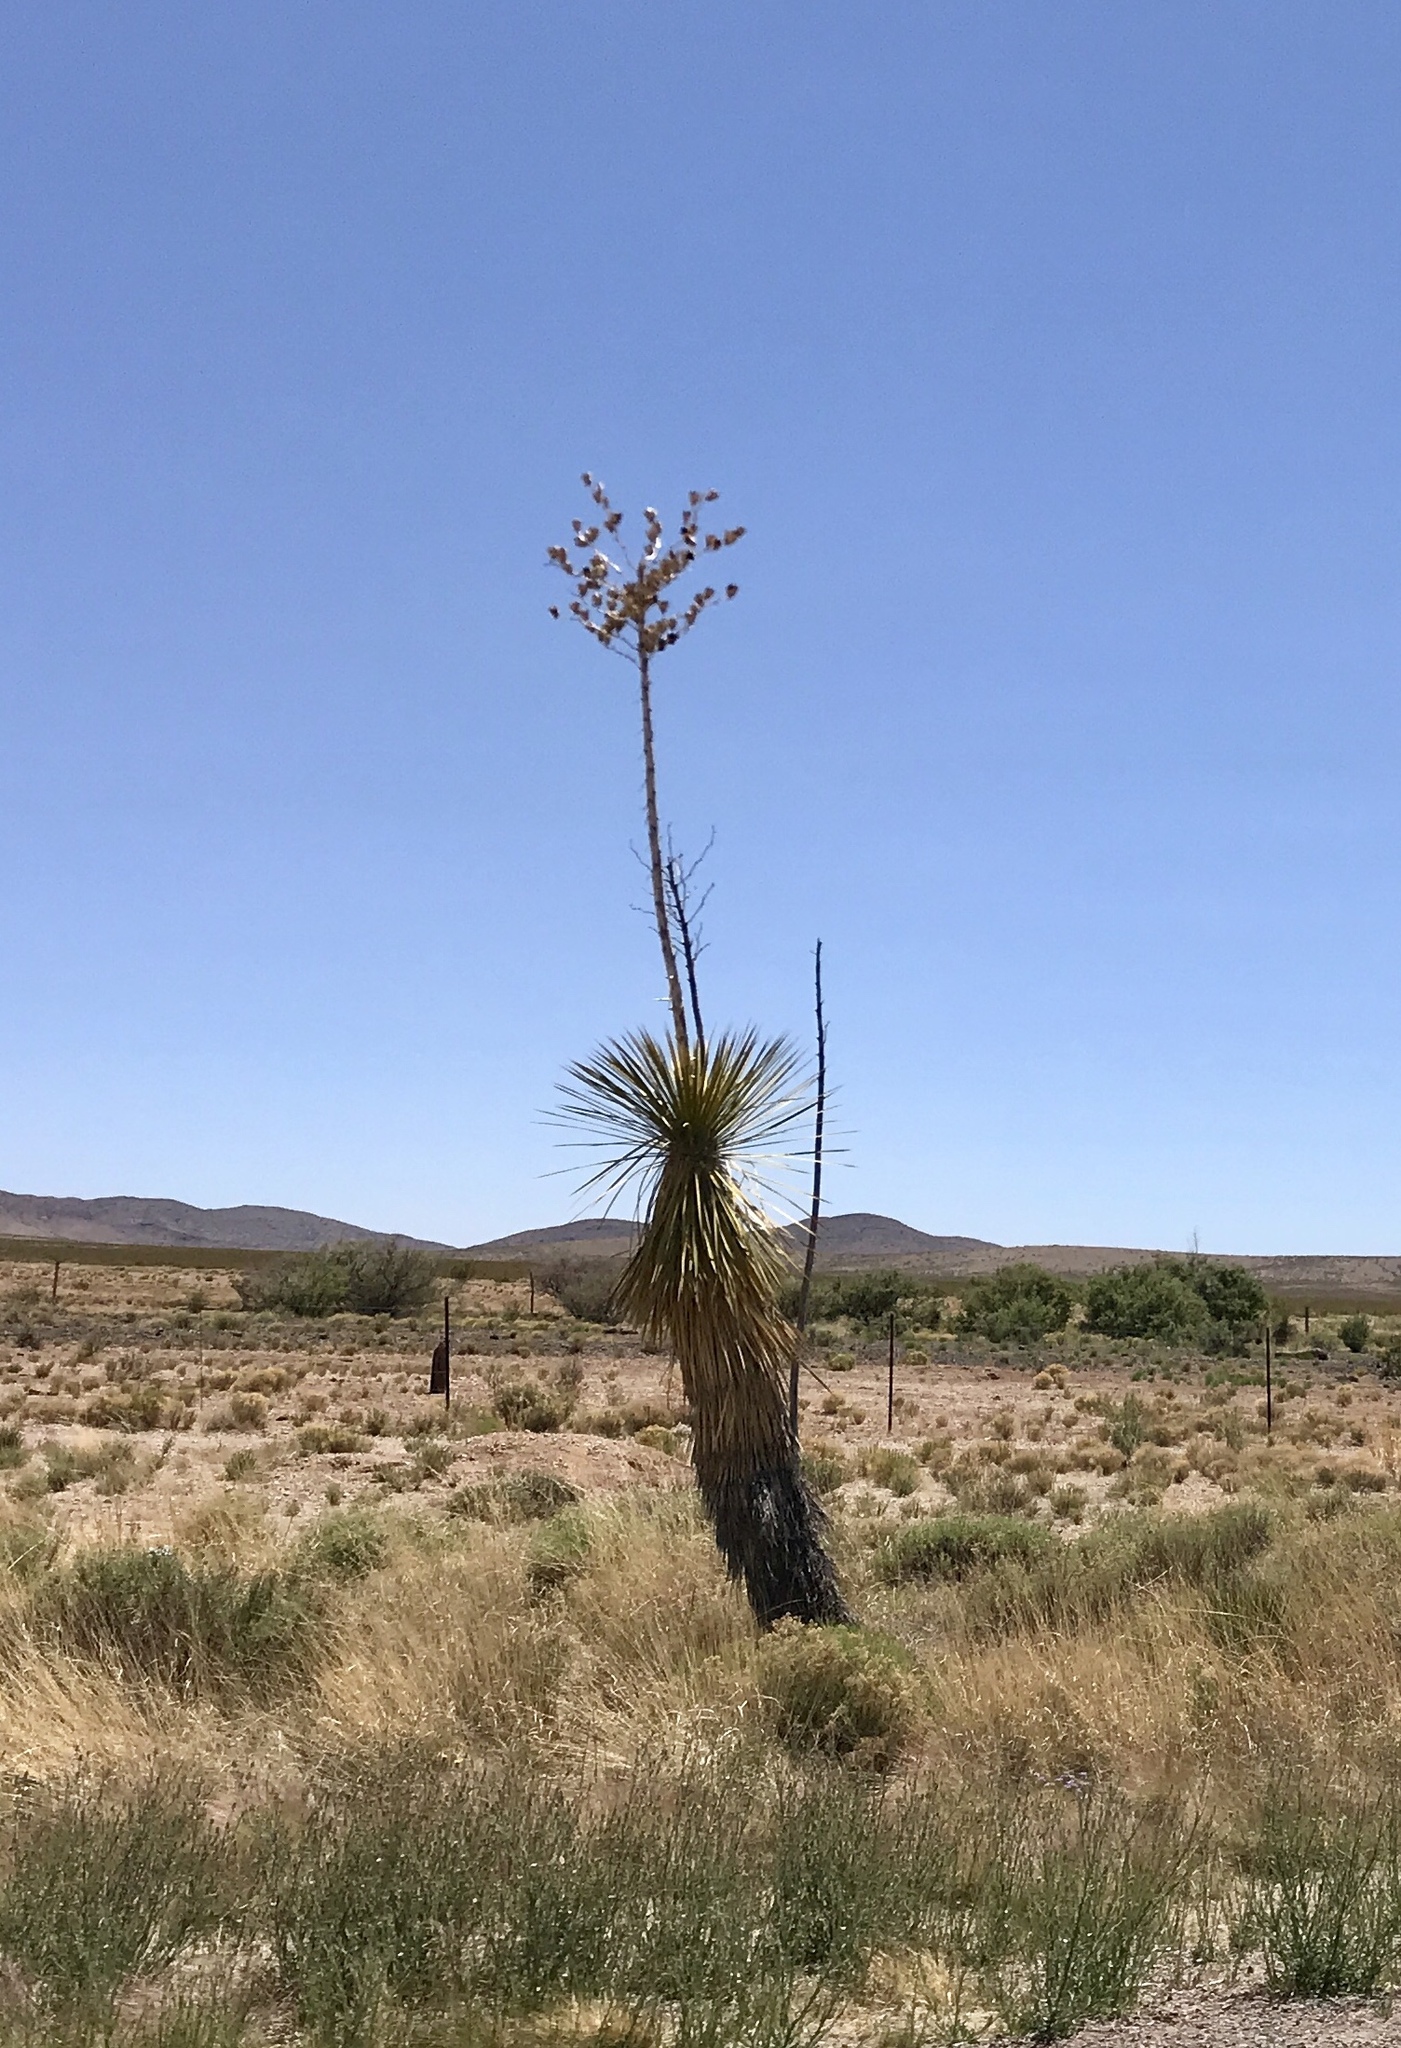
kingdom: Plantae
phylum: Tracheophyta
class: Liliopsida
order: Asparagales
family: Asparagaceae
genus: Yucca
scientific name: Yucca elata
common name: Palmella
